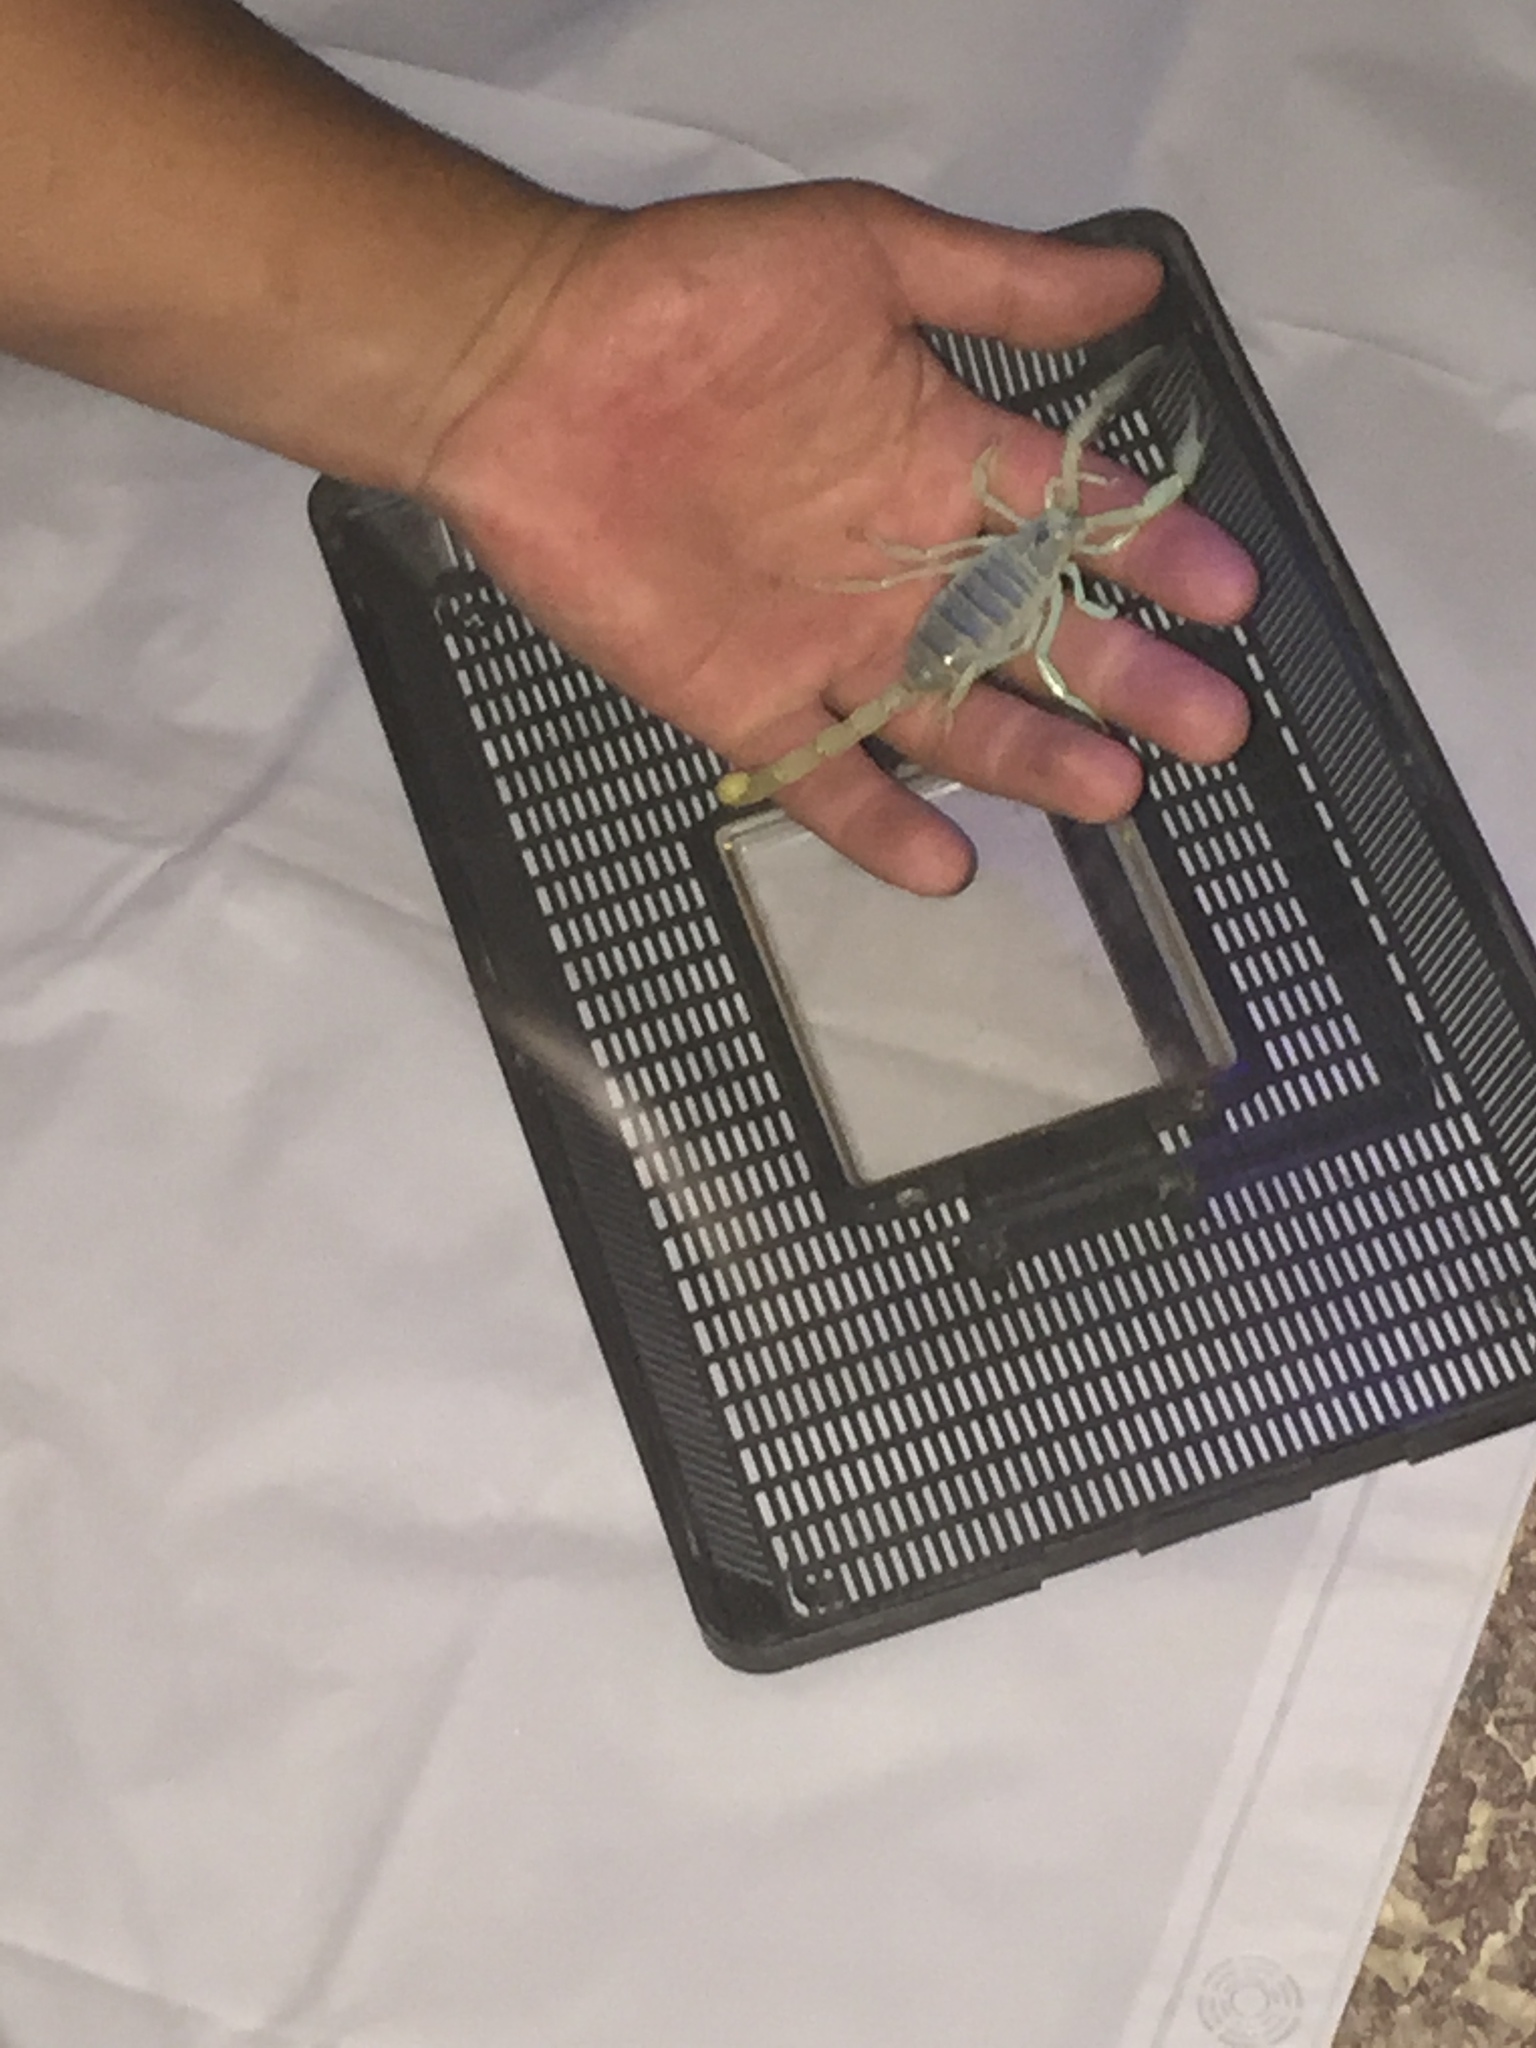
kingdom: Animalia
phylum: Arthropoda
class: Arachnida
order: Scorpiones
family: Hadruridae
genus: Hadrurus
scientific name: Hadrurus arizonensis
